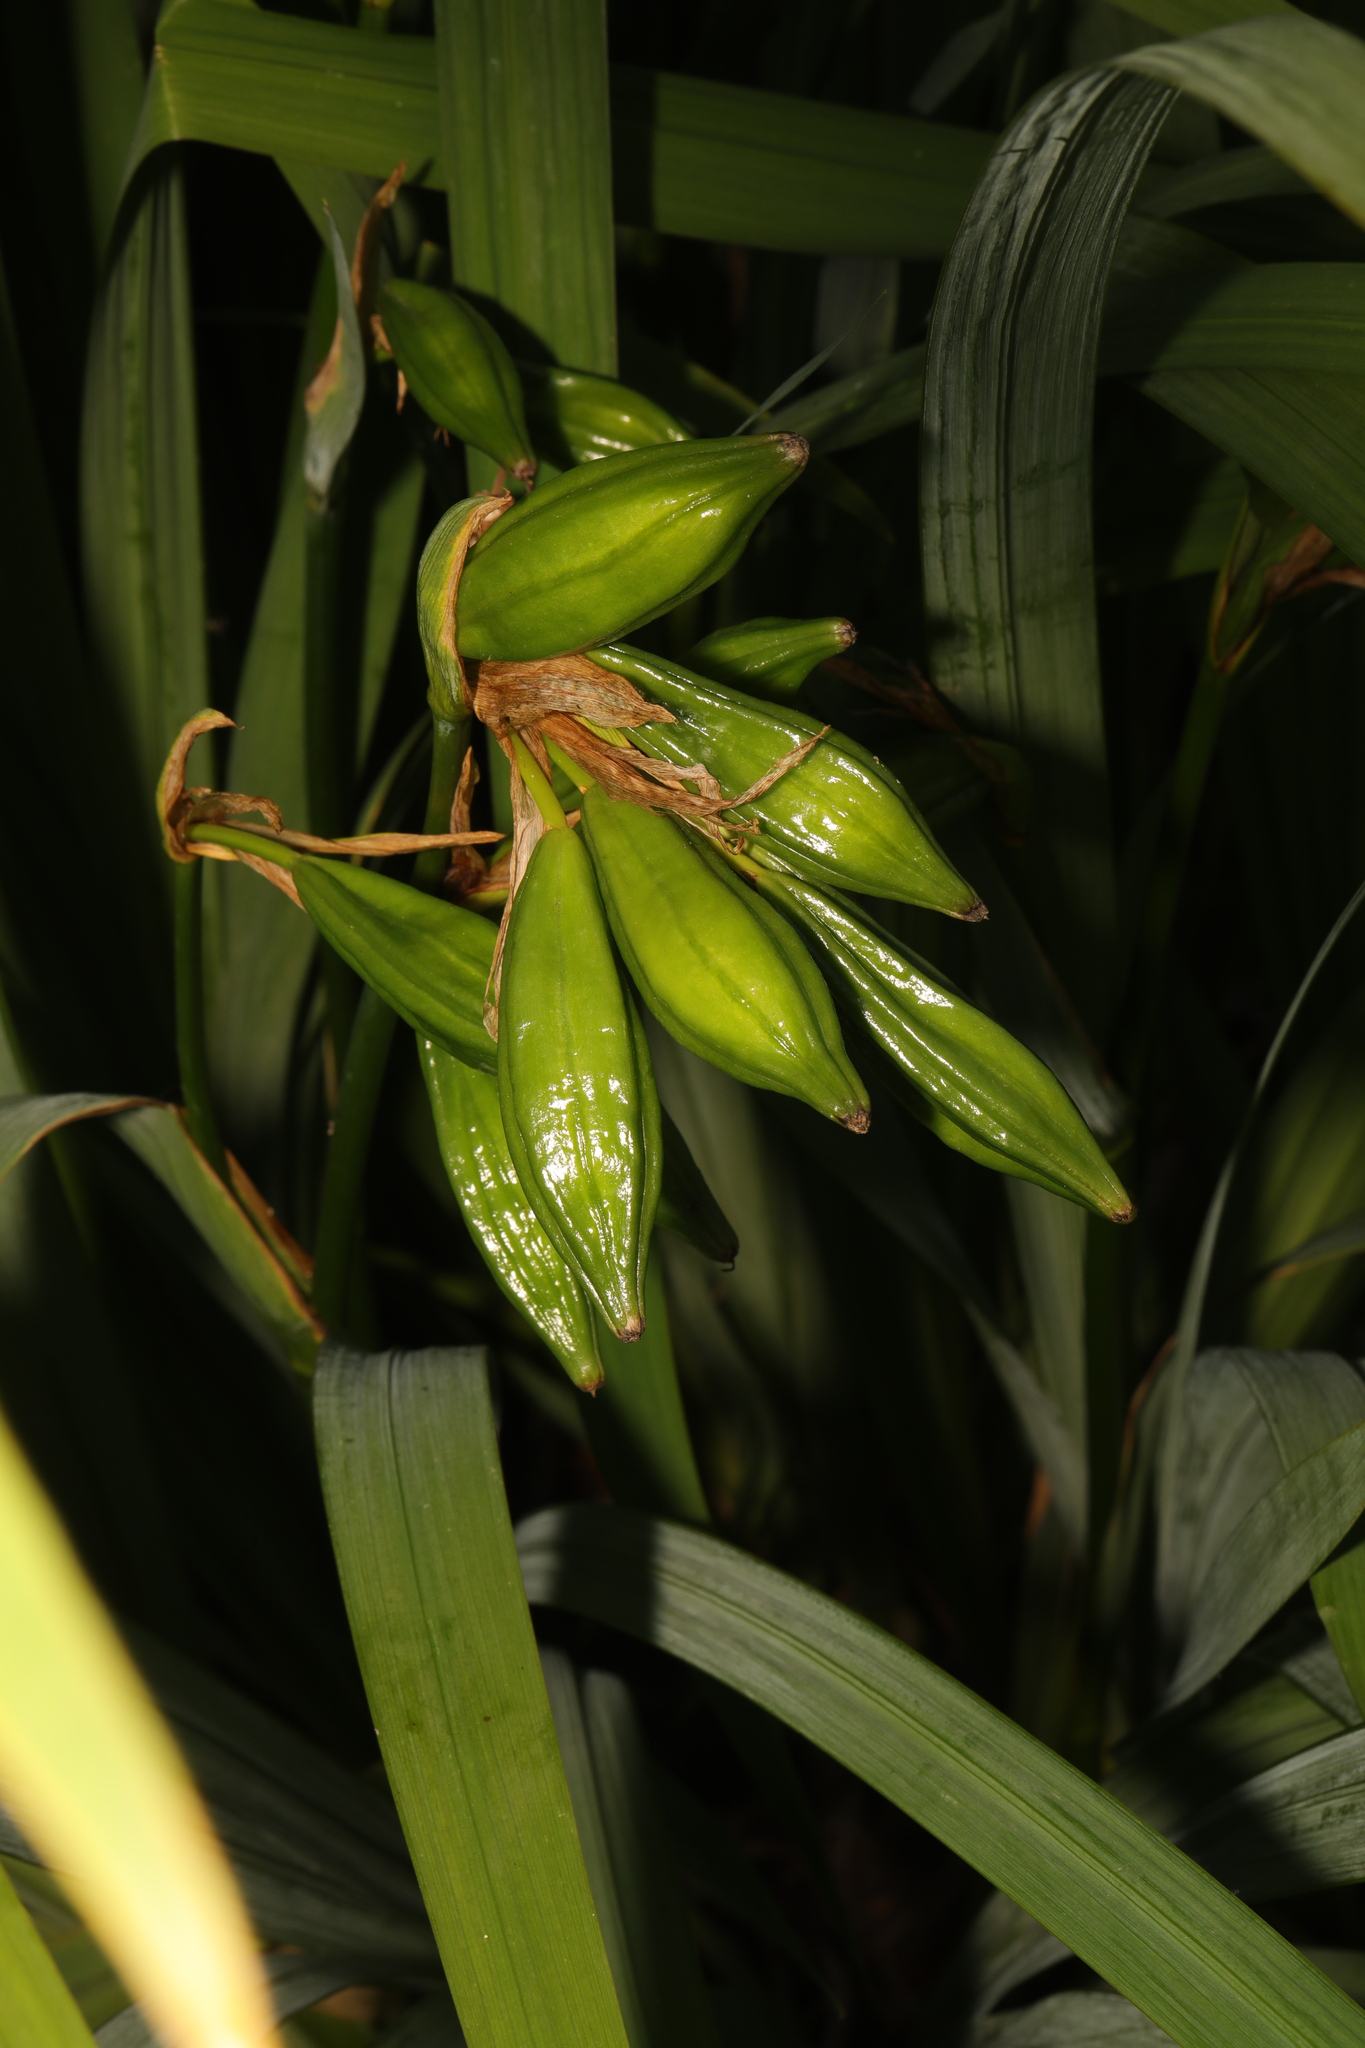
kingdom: Plantae
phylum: Tracheophyta
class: Liliopsida
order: Asparagales
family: Iridaceae
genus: Iris
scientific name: Iris pseudacorus
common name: Yellow flag
